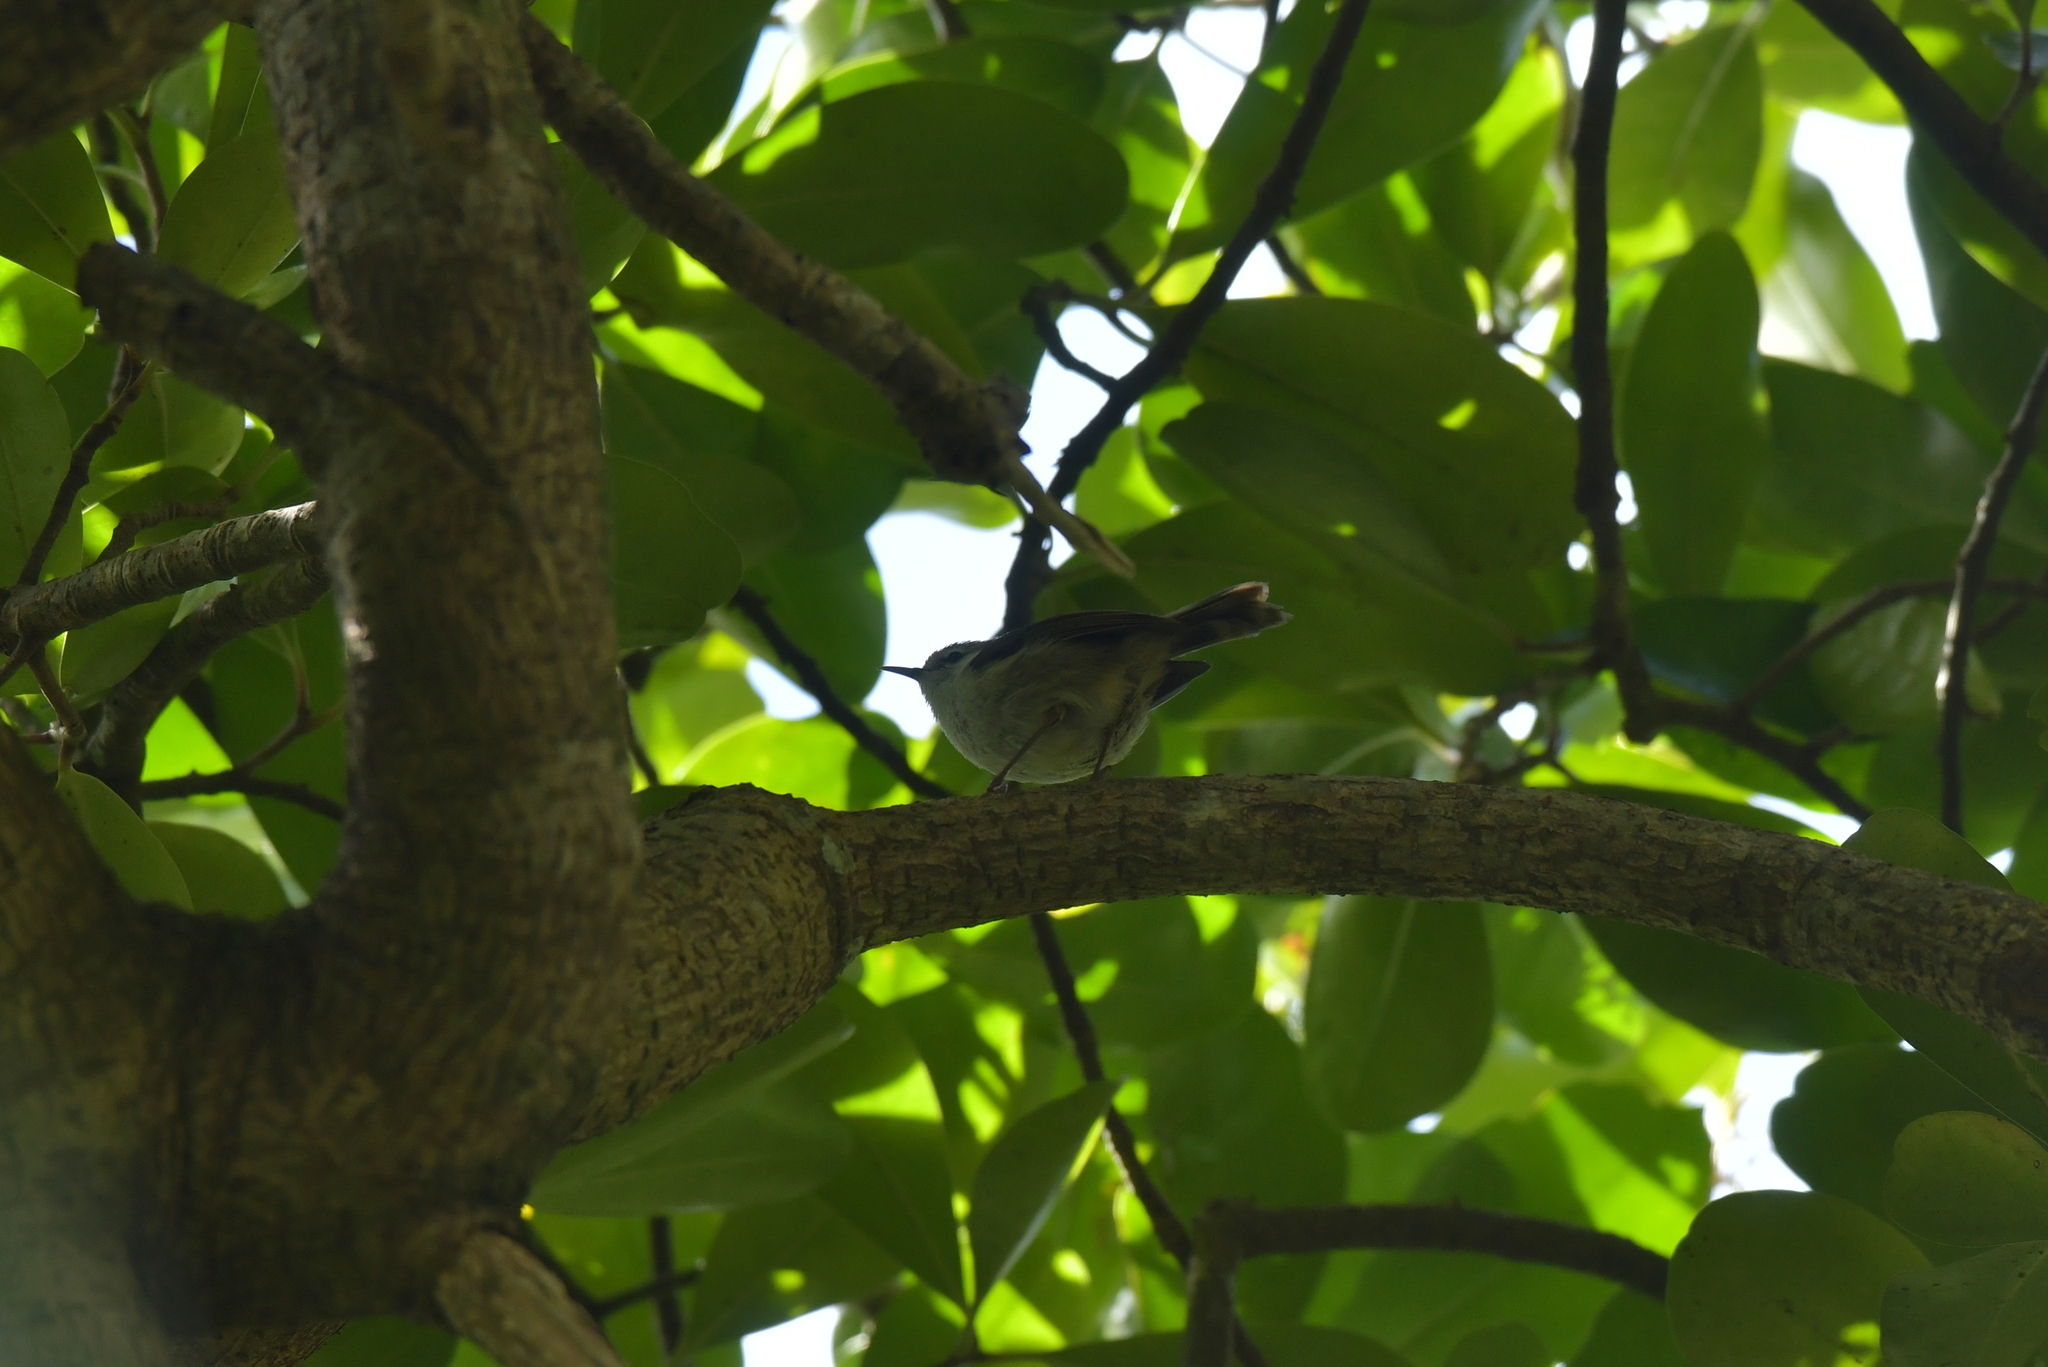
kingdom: Animalia
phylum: Chordata
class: Aves
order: Passeriformes
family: Acanthizidae
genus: Gerygone
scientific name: Gerygone albofrontata
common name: Chatham gerygone
